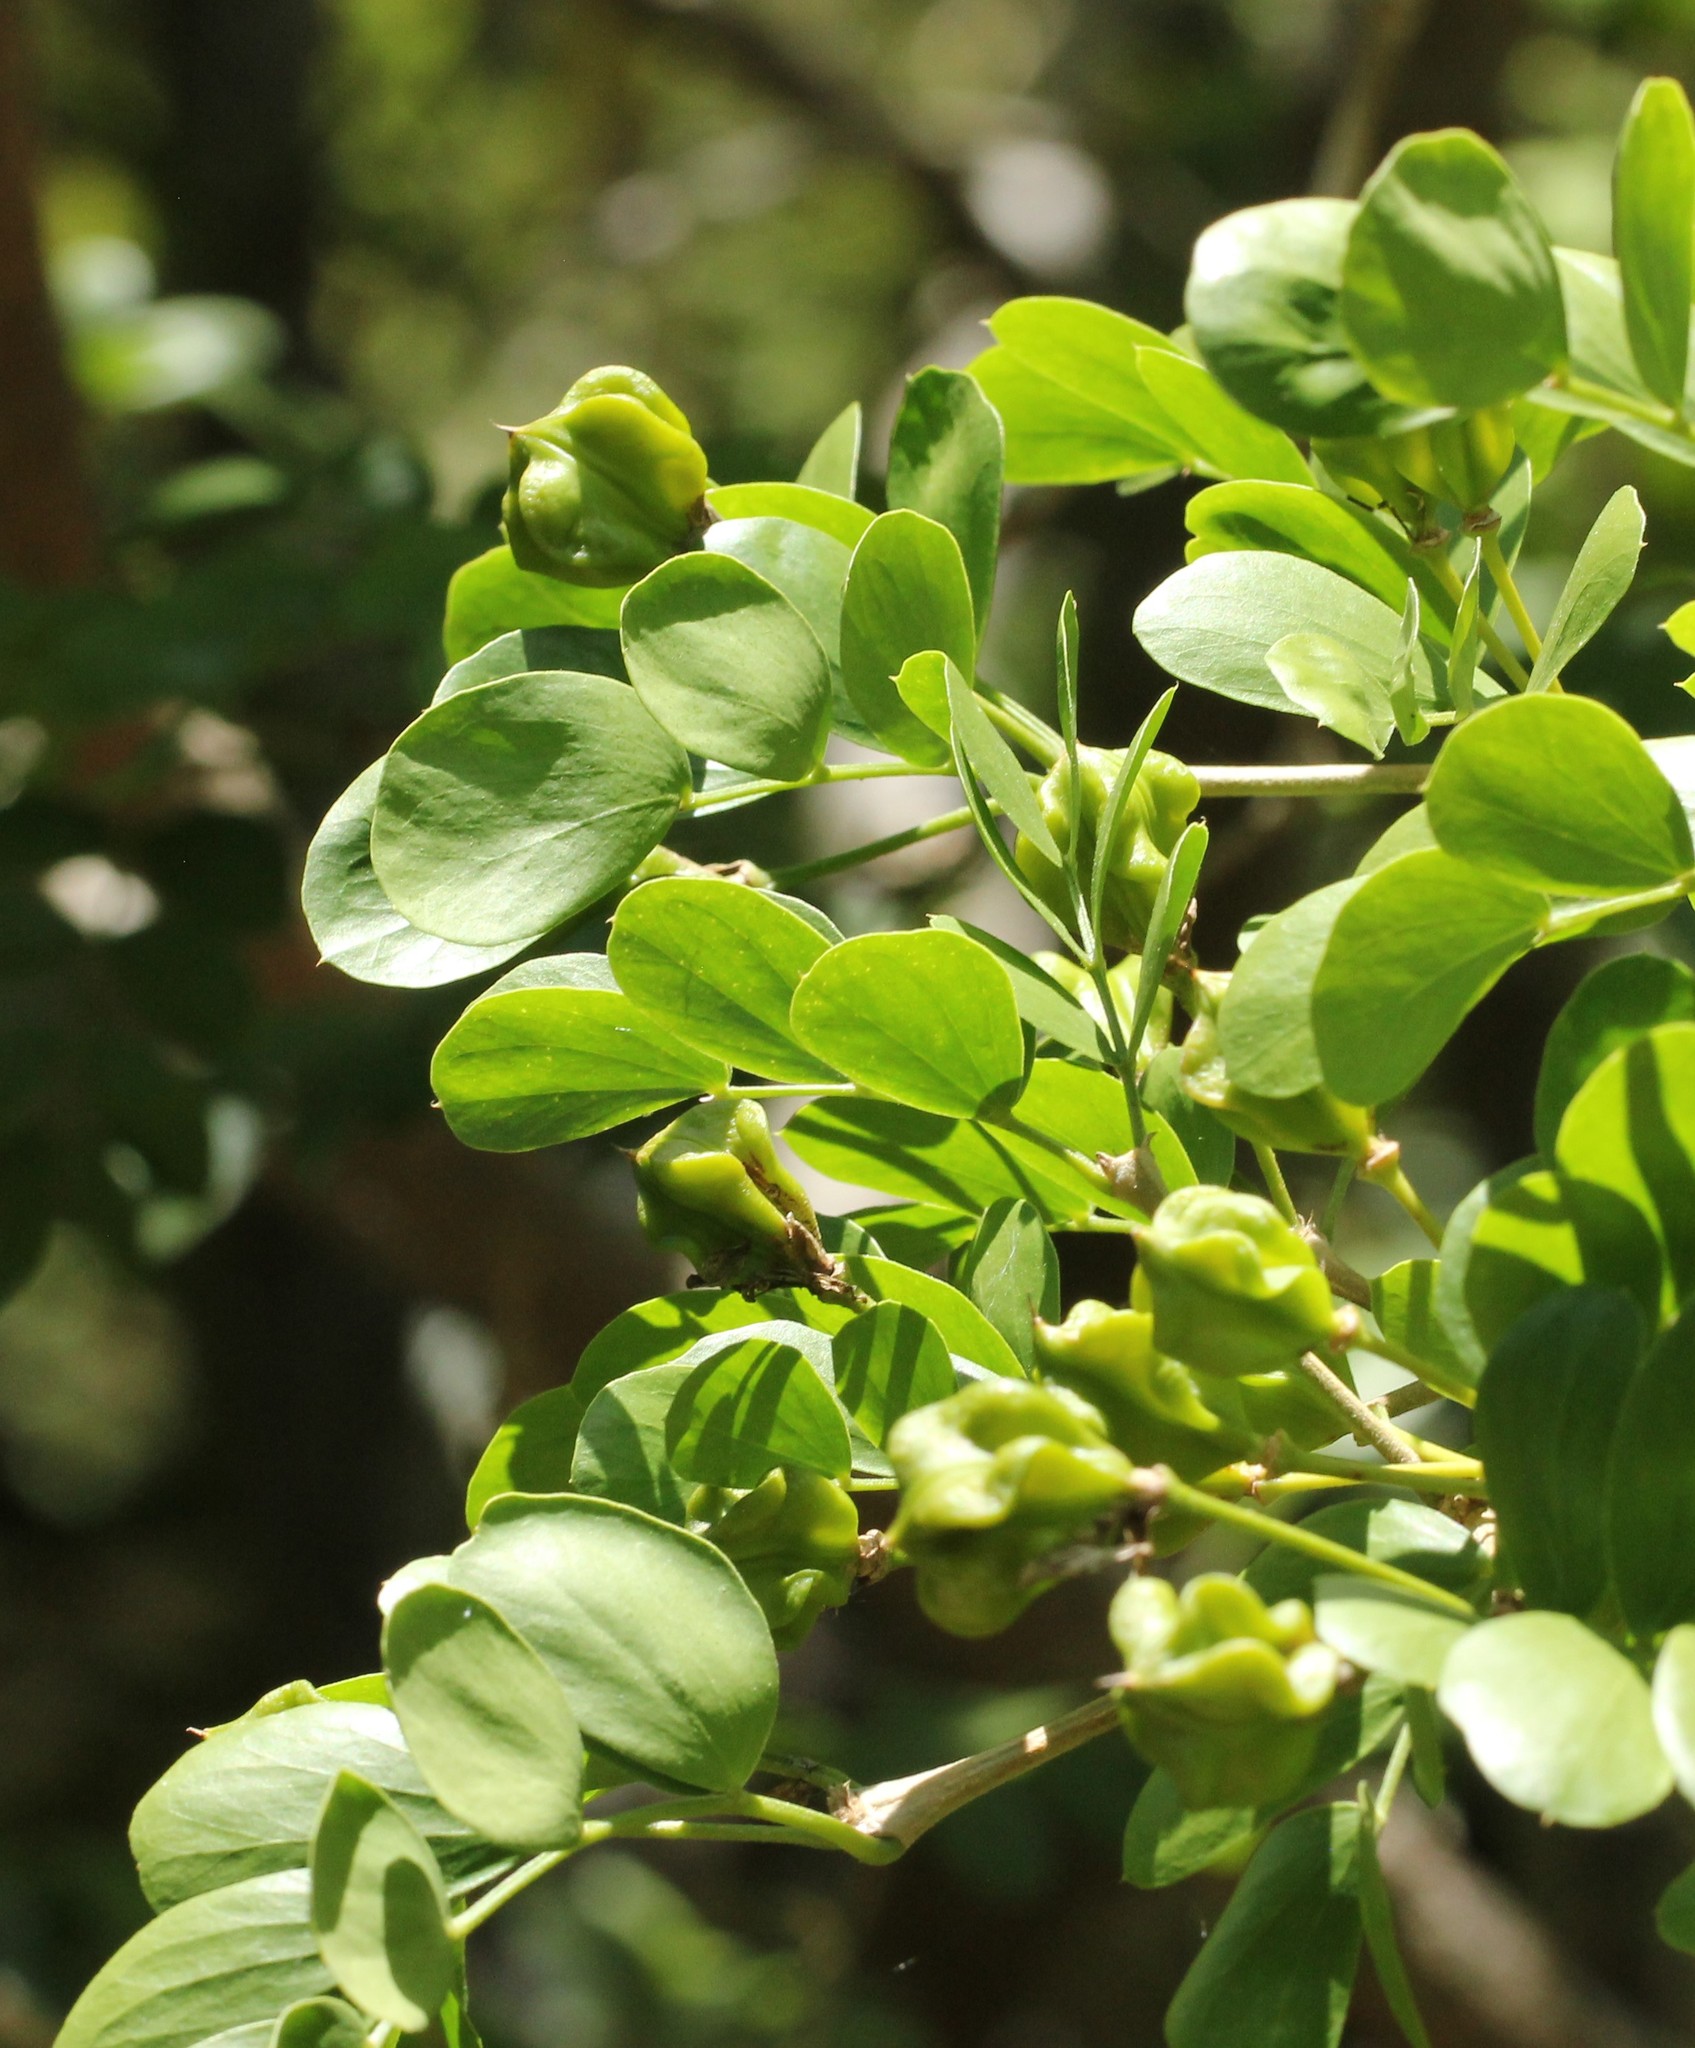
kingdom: Plantae
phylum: Tracheophyta
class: Magnoliopsida
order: Zygophyllales
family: Zygophyllaceae
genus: Guaiacum
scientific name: Guaiacum sanctum
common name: Holywood
